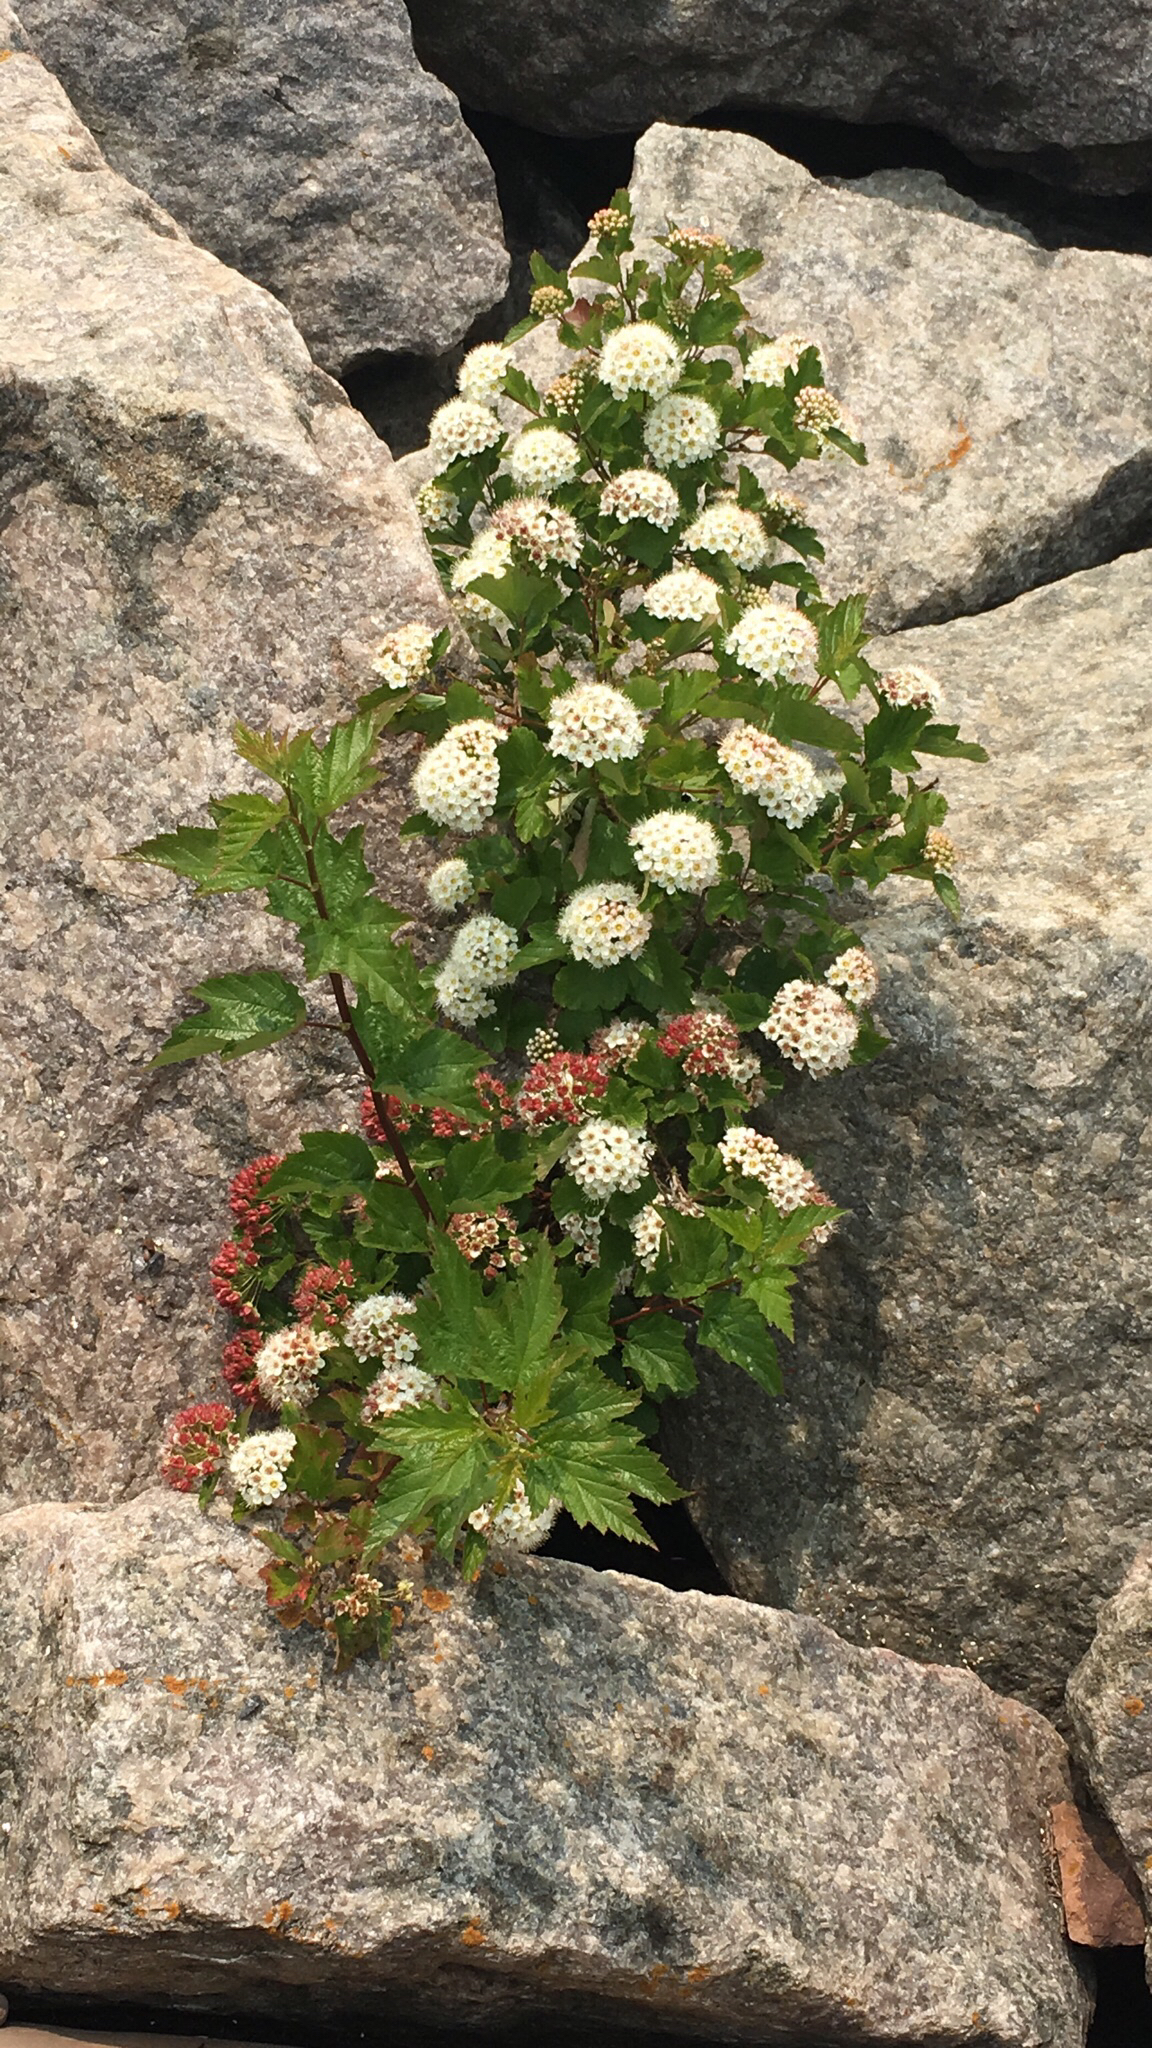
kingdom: Plantae
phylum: Tracheophyta
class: Magnoliopsida
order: Rosales
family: Rosaceae
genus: Physocarpus
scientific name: Physocarpus opulifolius
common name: Ninebark
